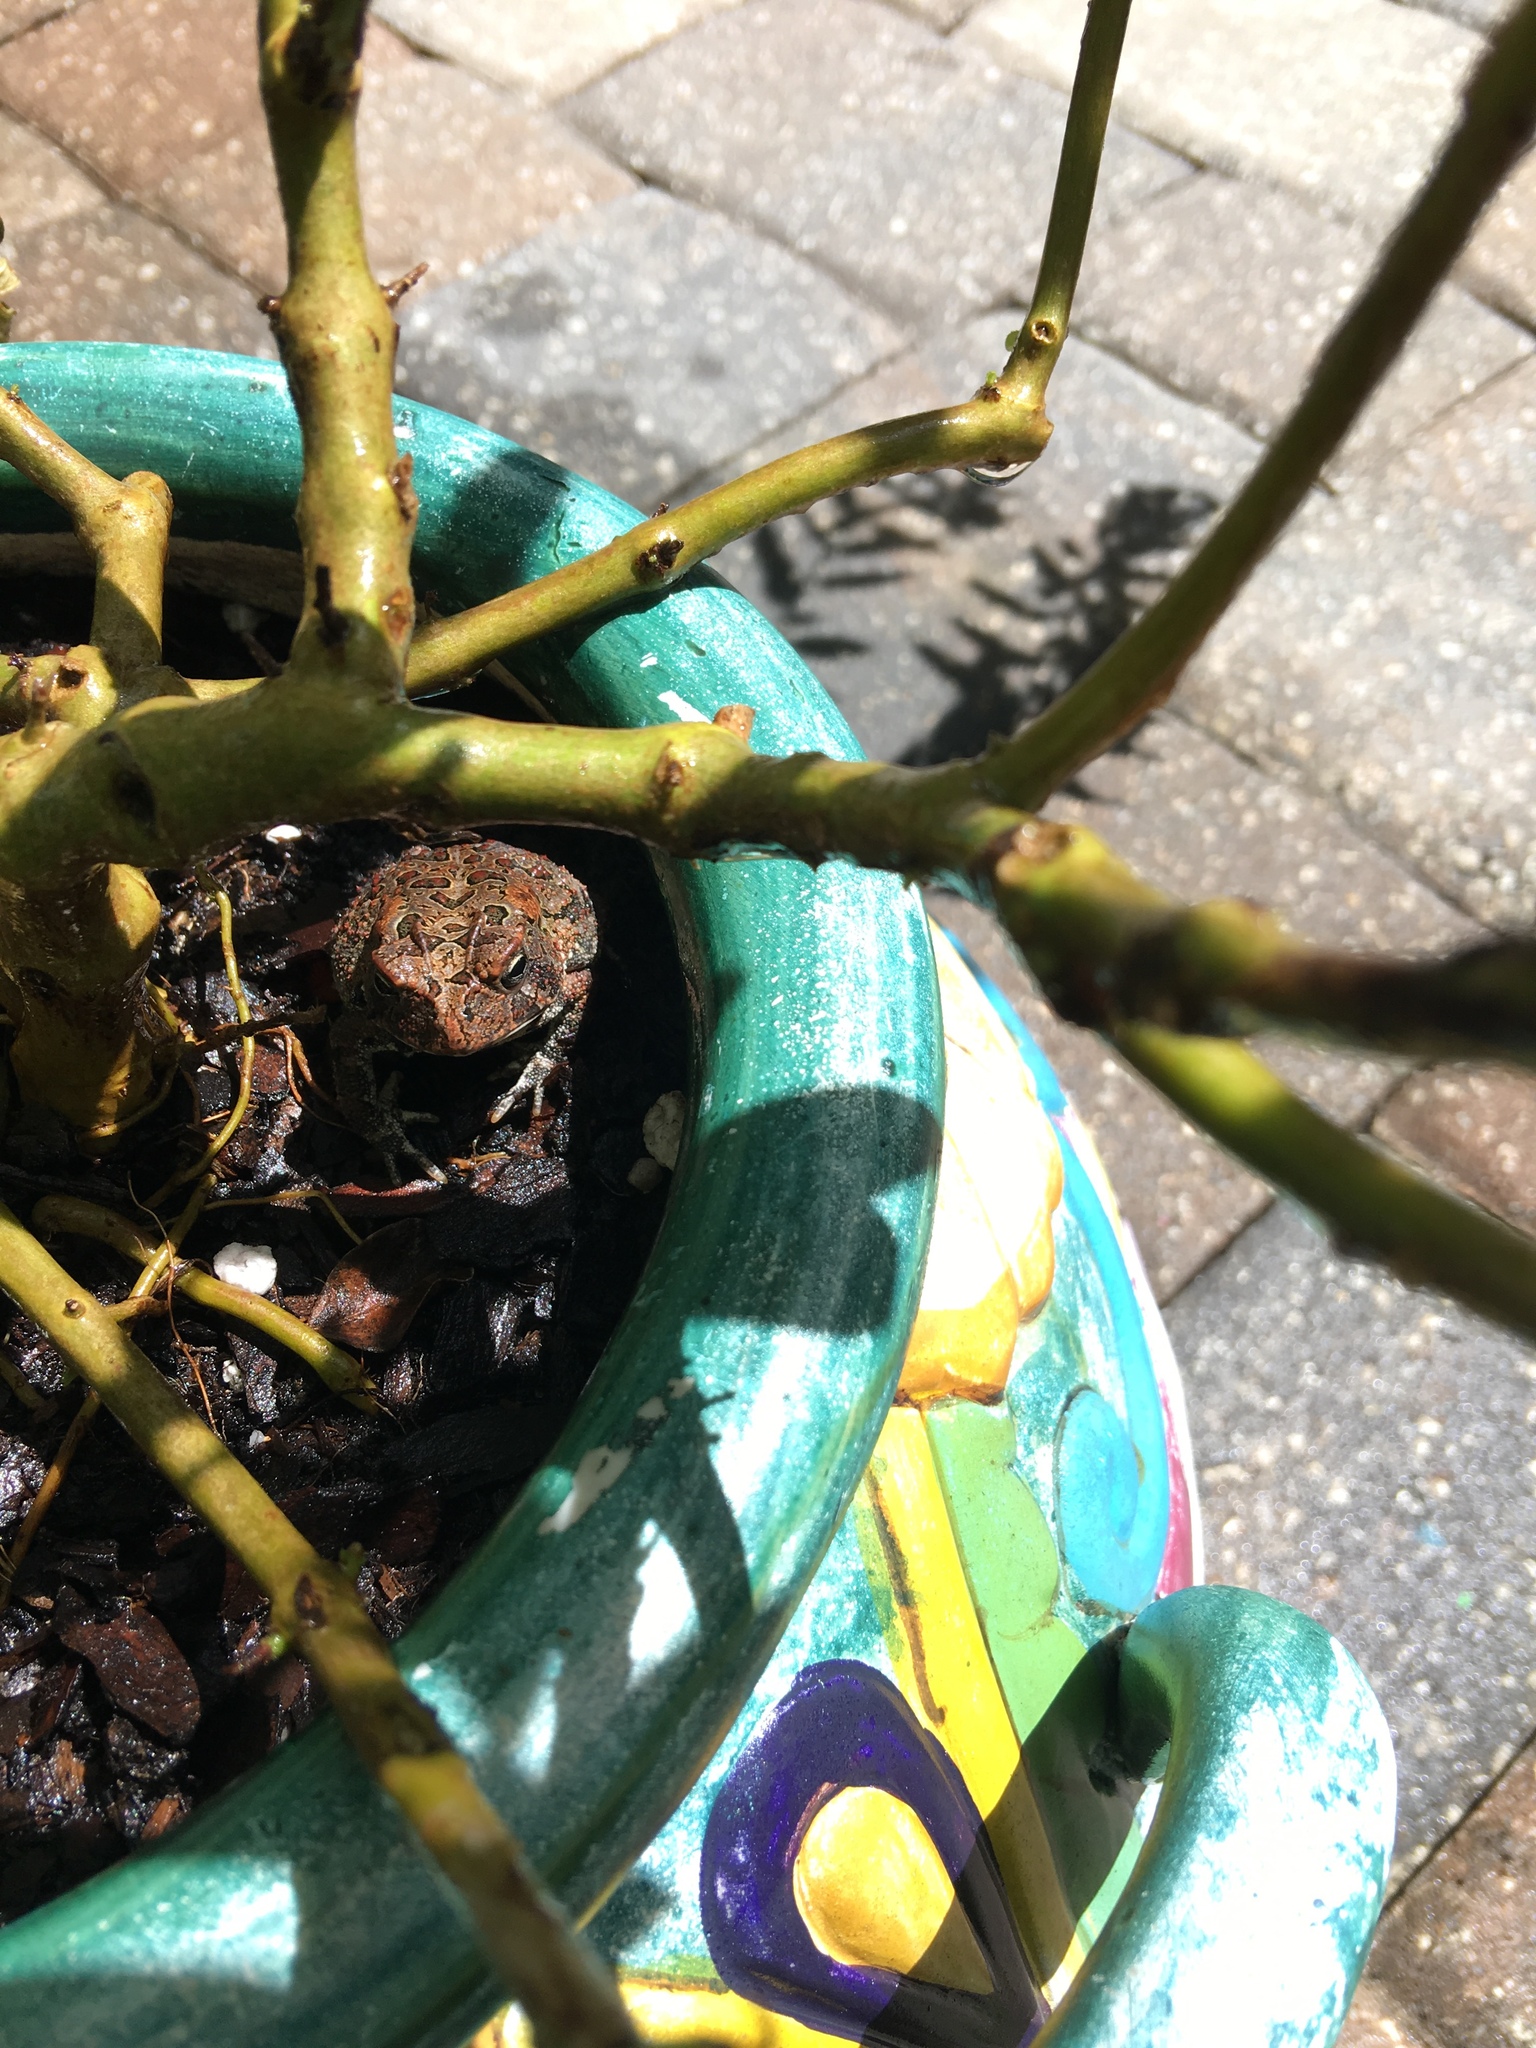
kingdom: Animalia
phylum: Chordata
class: Amphibia
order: Anura
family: Bufonidae
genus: Anaxyrus
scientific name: Anaxyrus terrestris
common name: Southern toad
